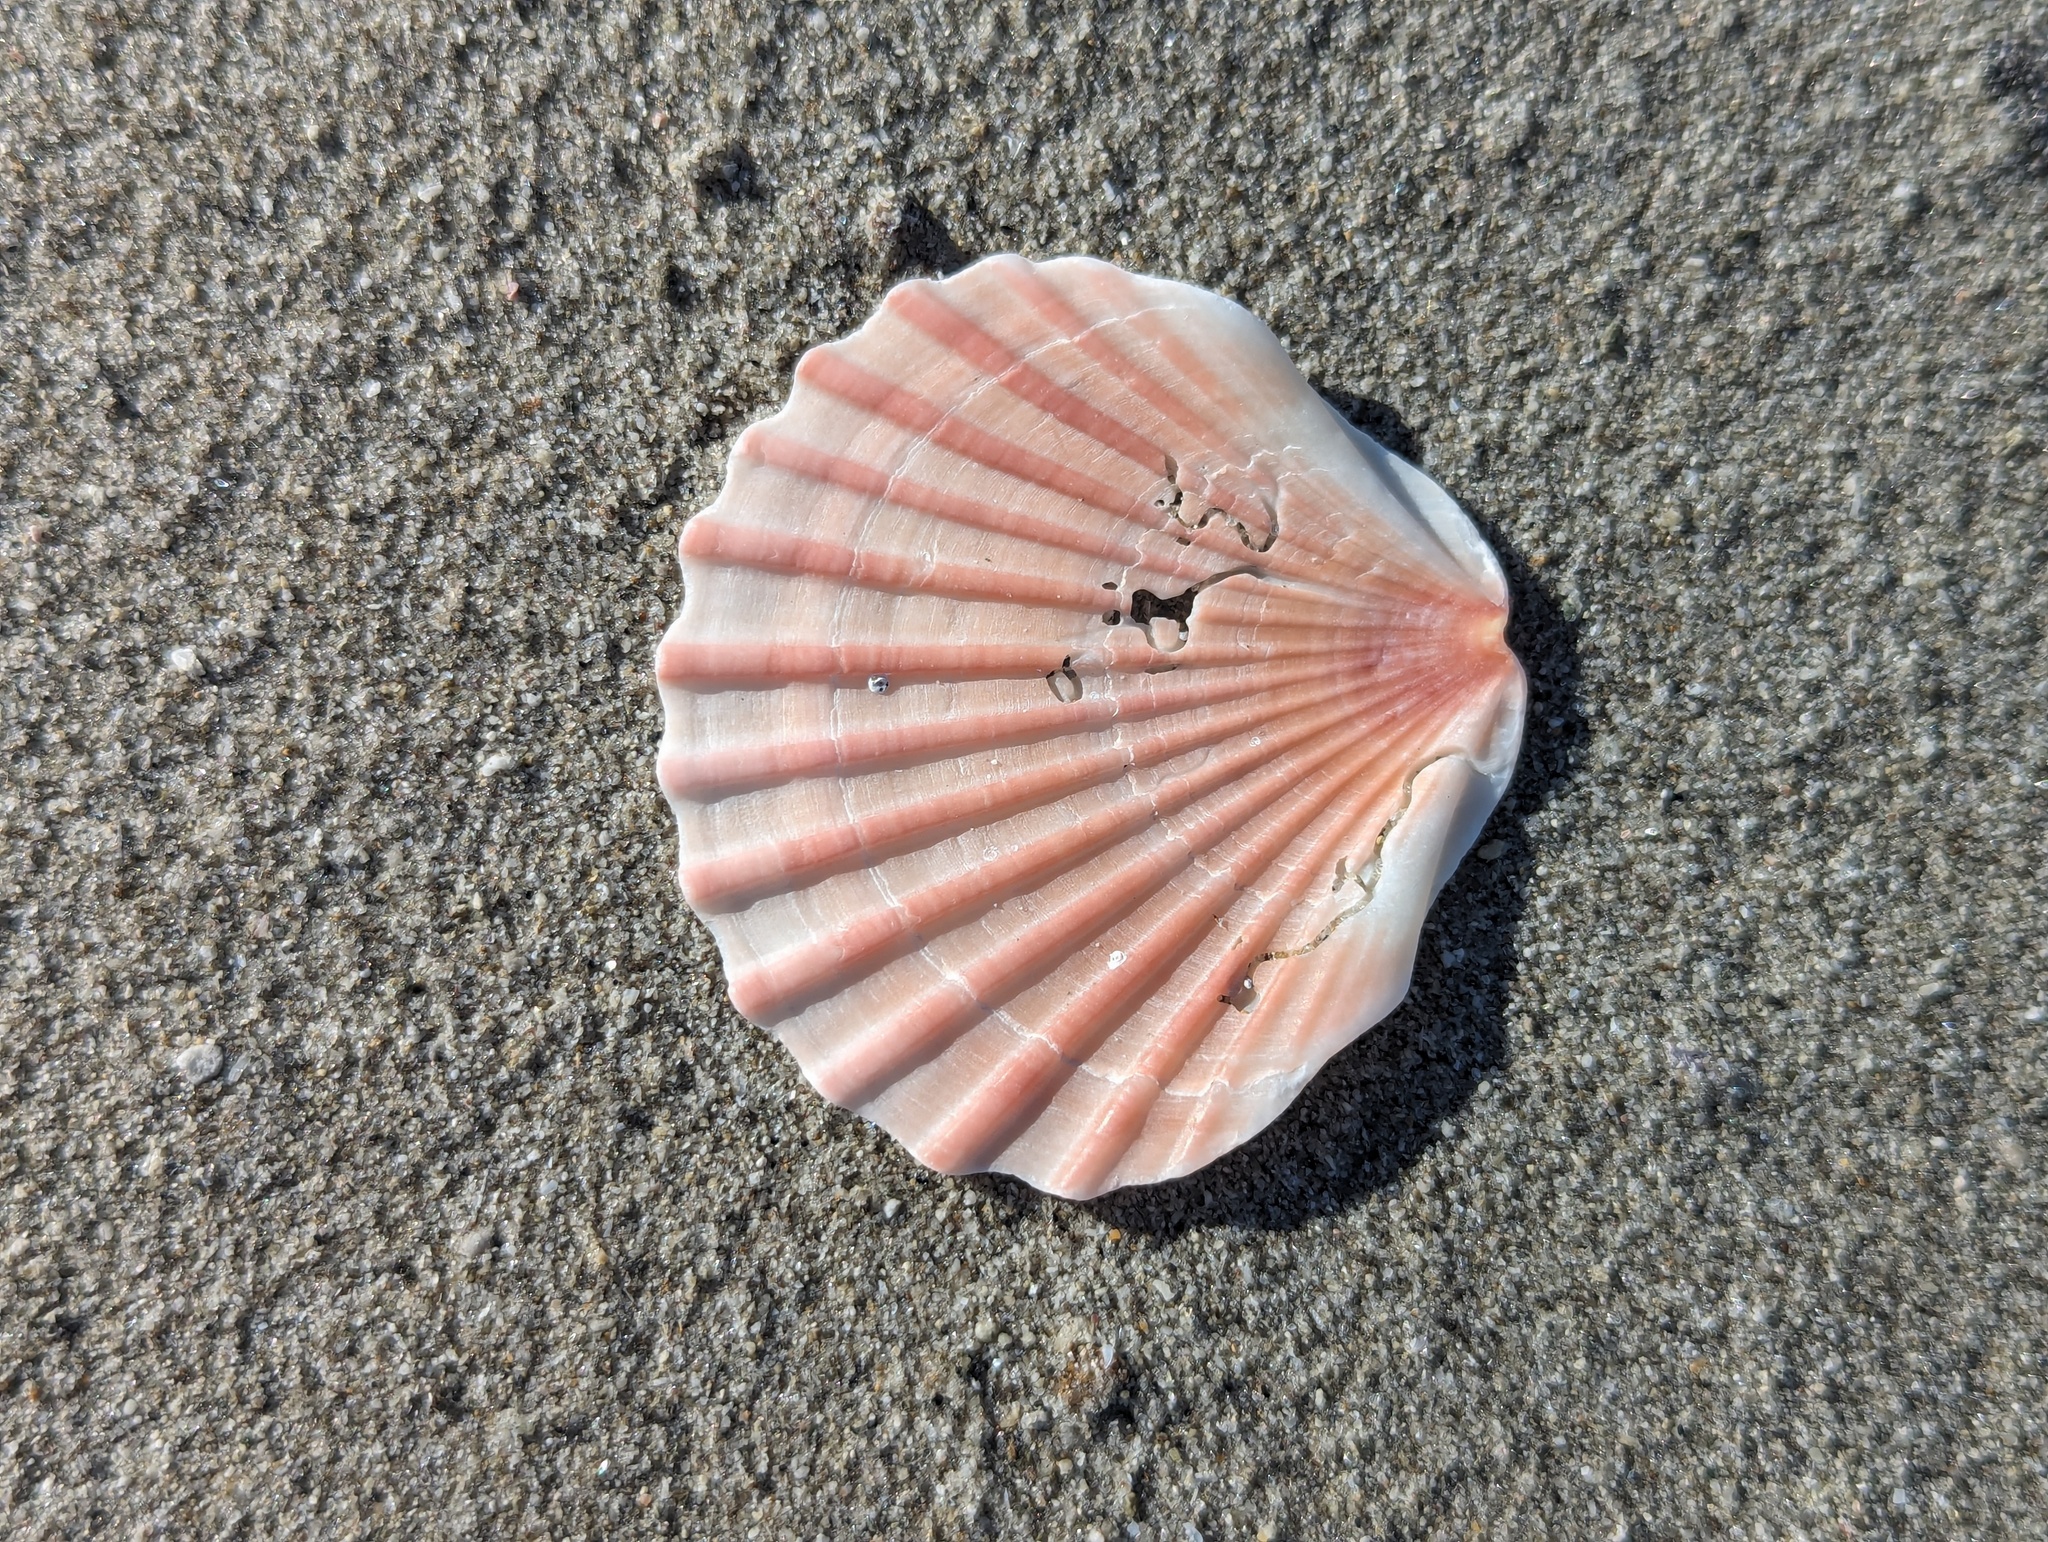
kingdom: Animalia
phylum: Mollusca
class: Bivalvia
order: Pectinida
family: Pectinidae
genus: Pecten
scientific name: Pecten novaezelandiae
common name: New zealand scallop
